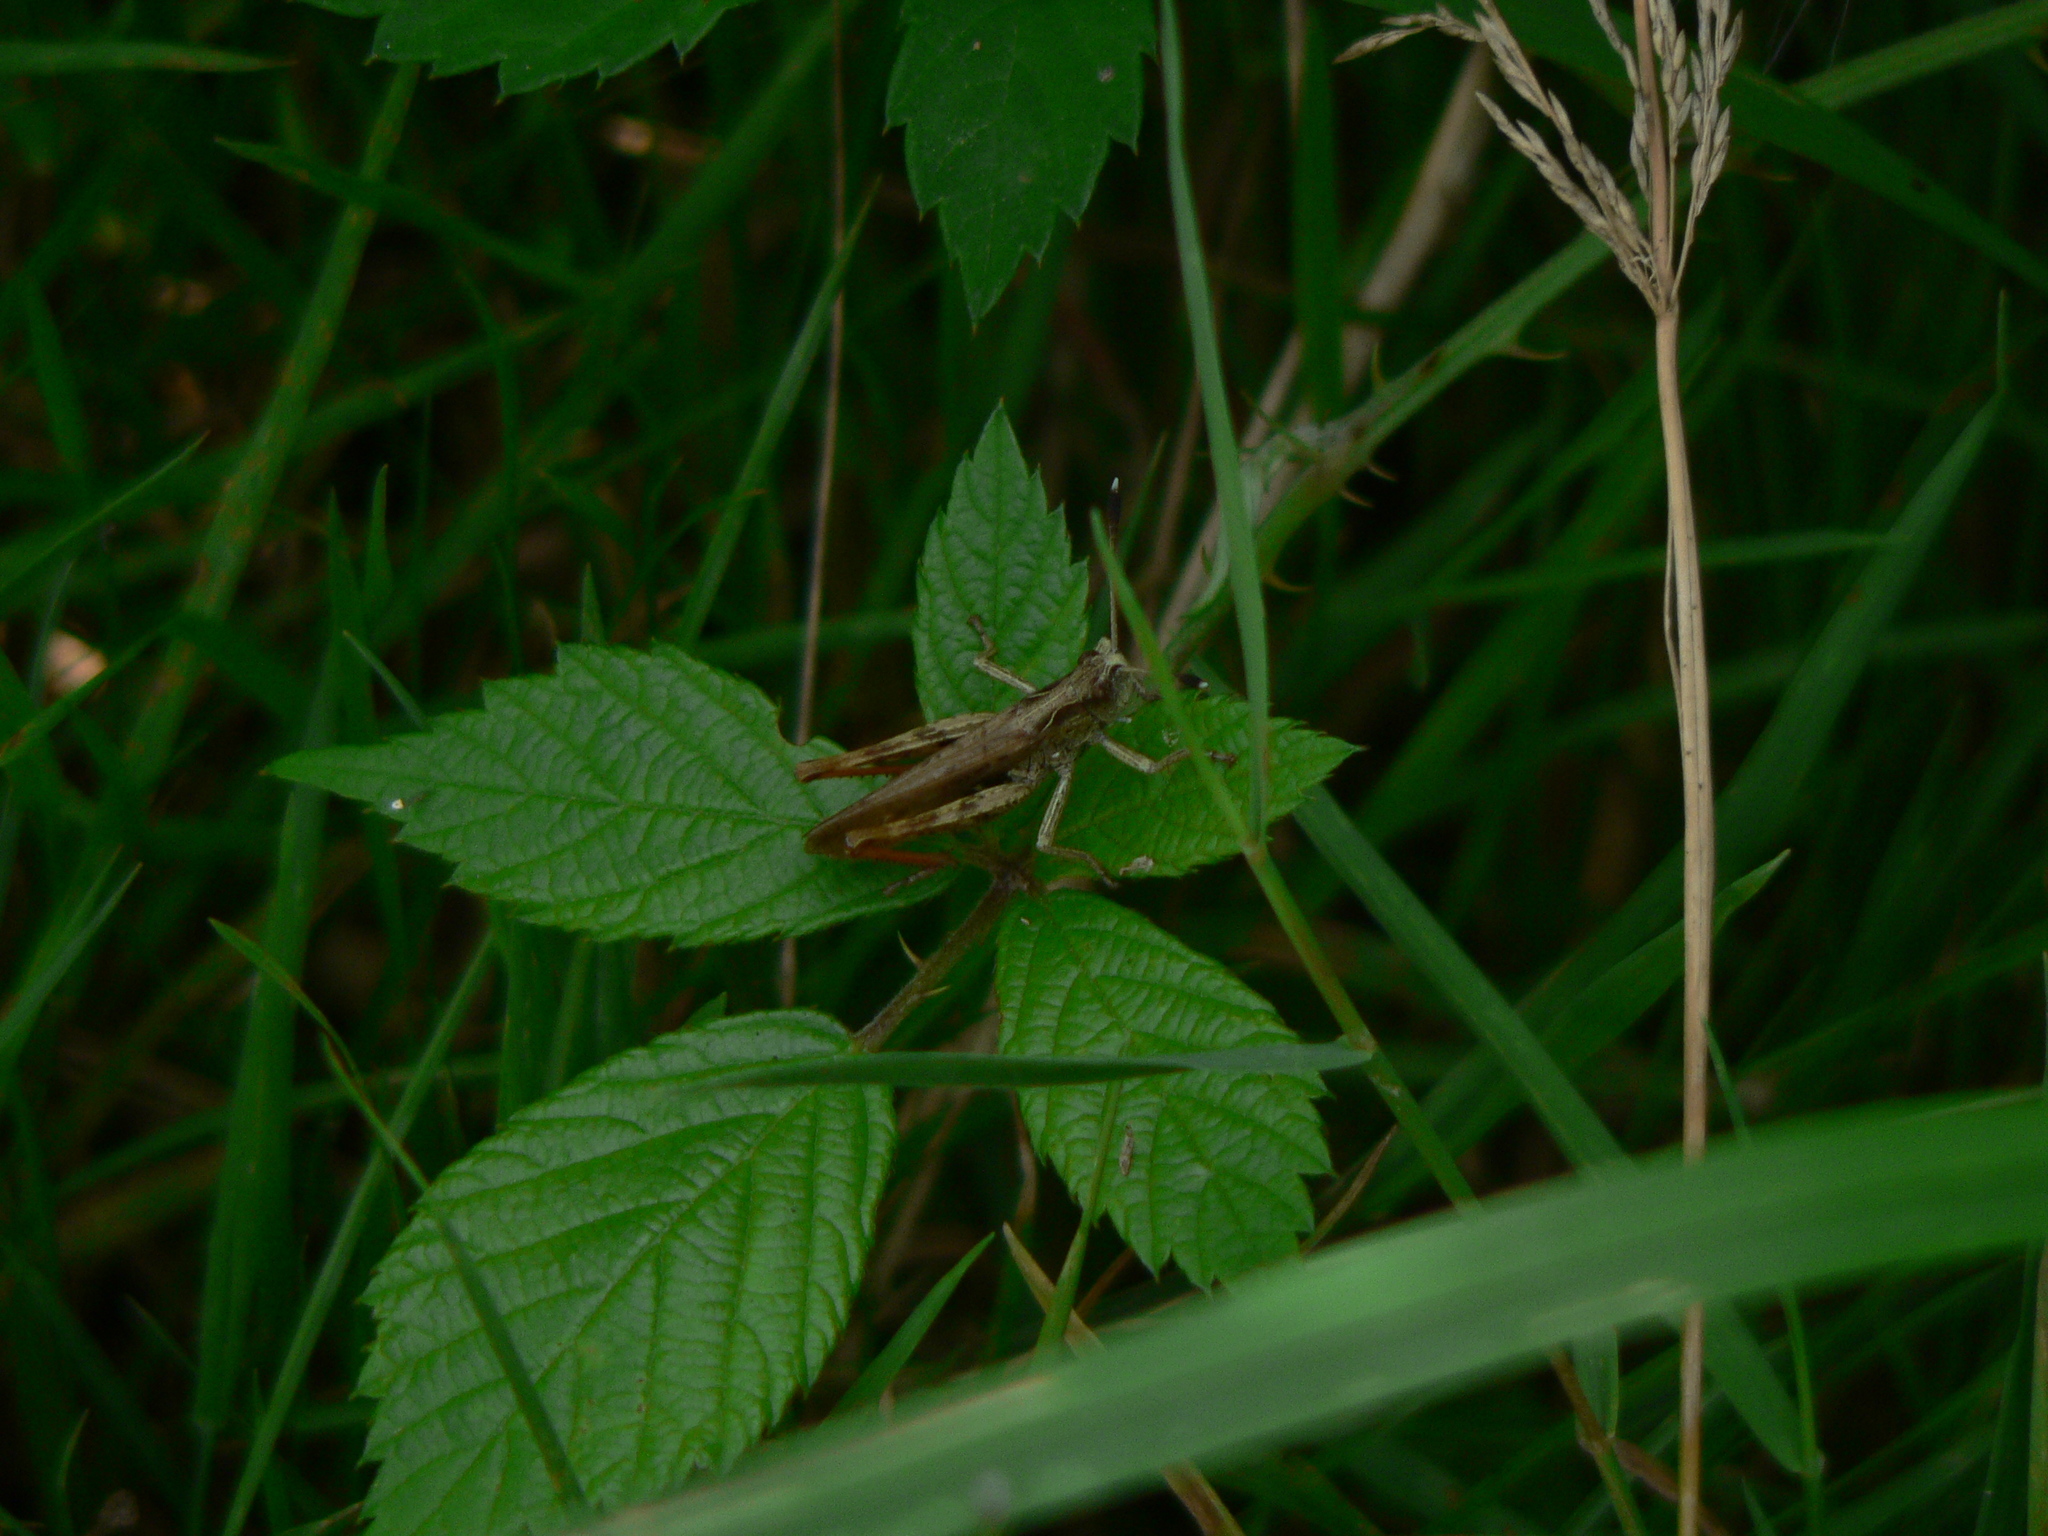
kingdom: Animalia
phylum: Arthropoda
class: Insecta
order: Orthoptera
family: Acrididae
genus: Gomphocerippus
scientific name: Gomphocerippus rufus
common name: Rufous grasshopper
